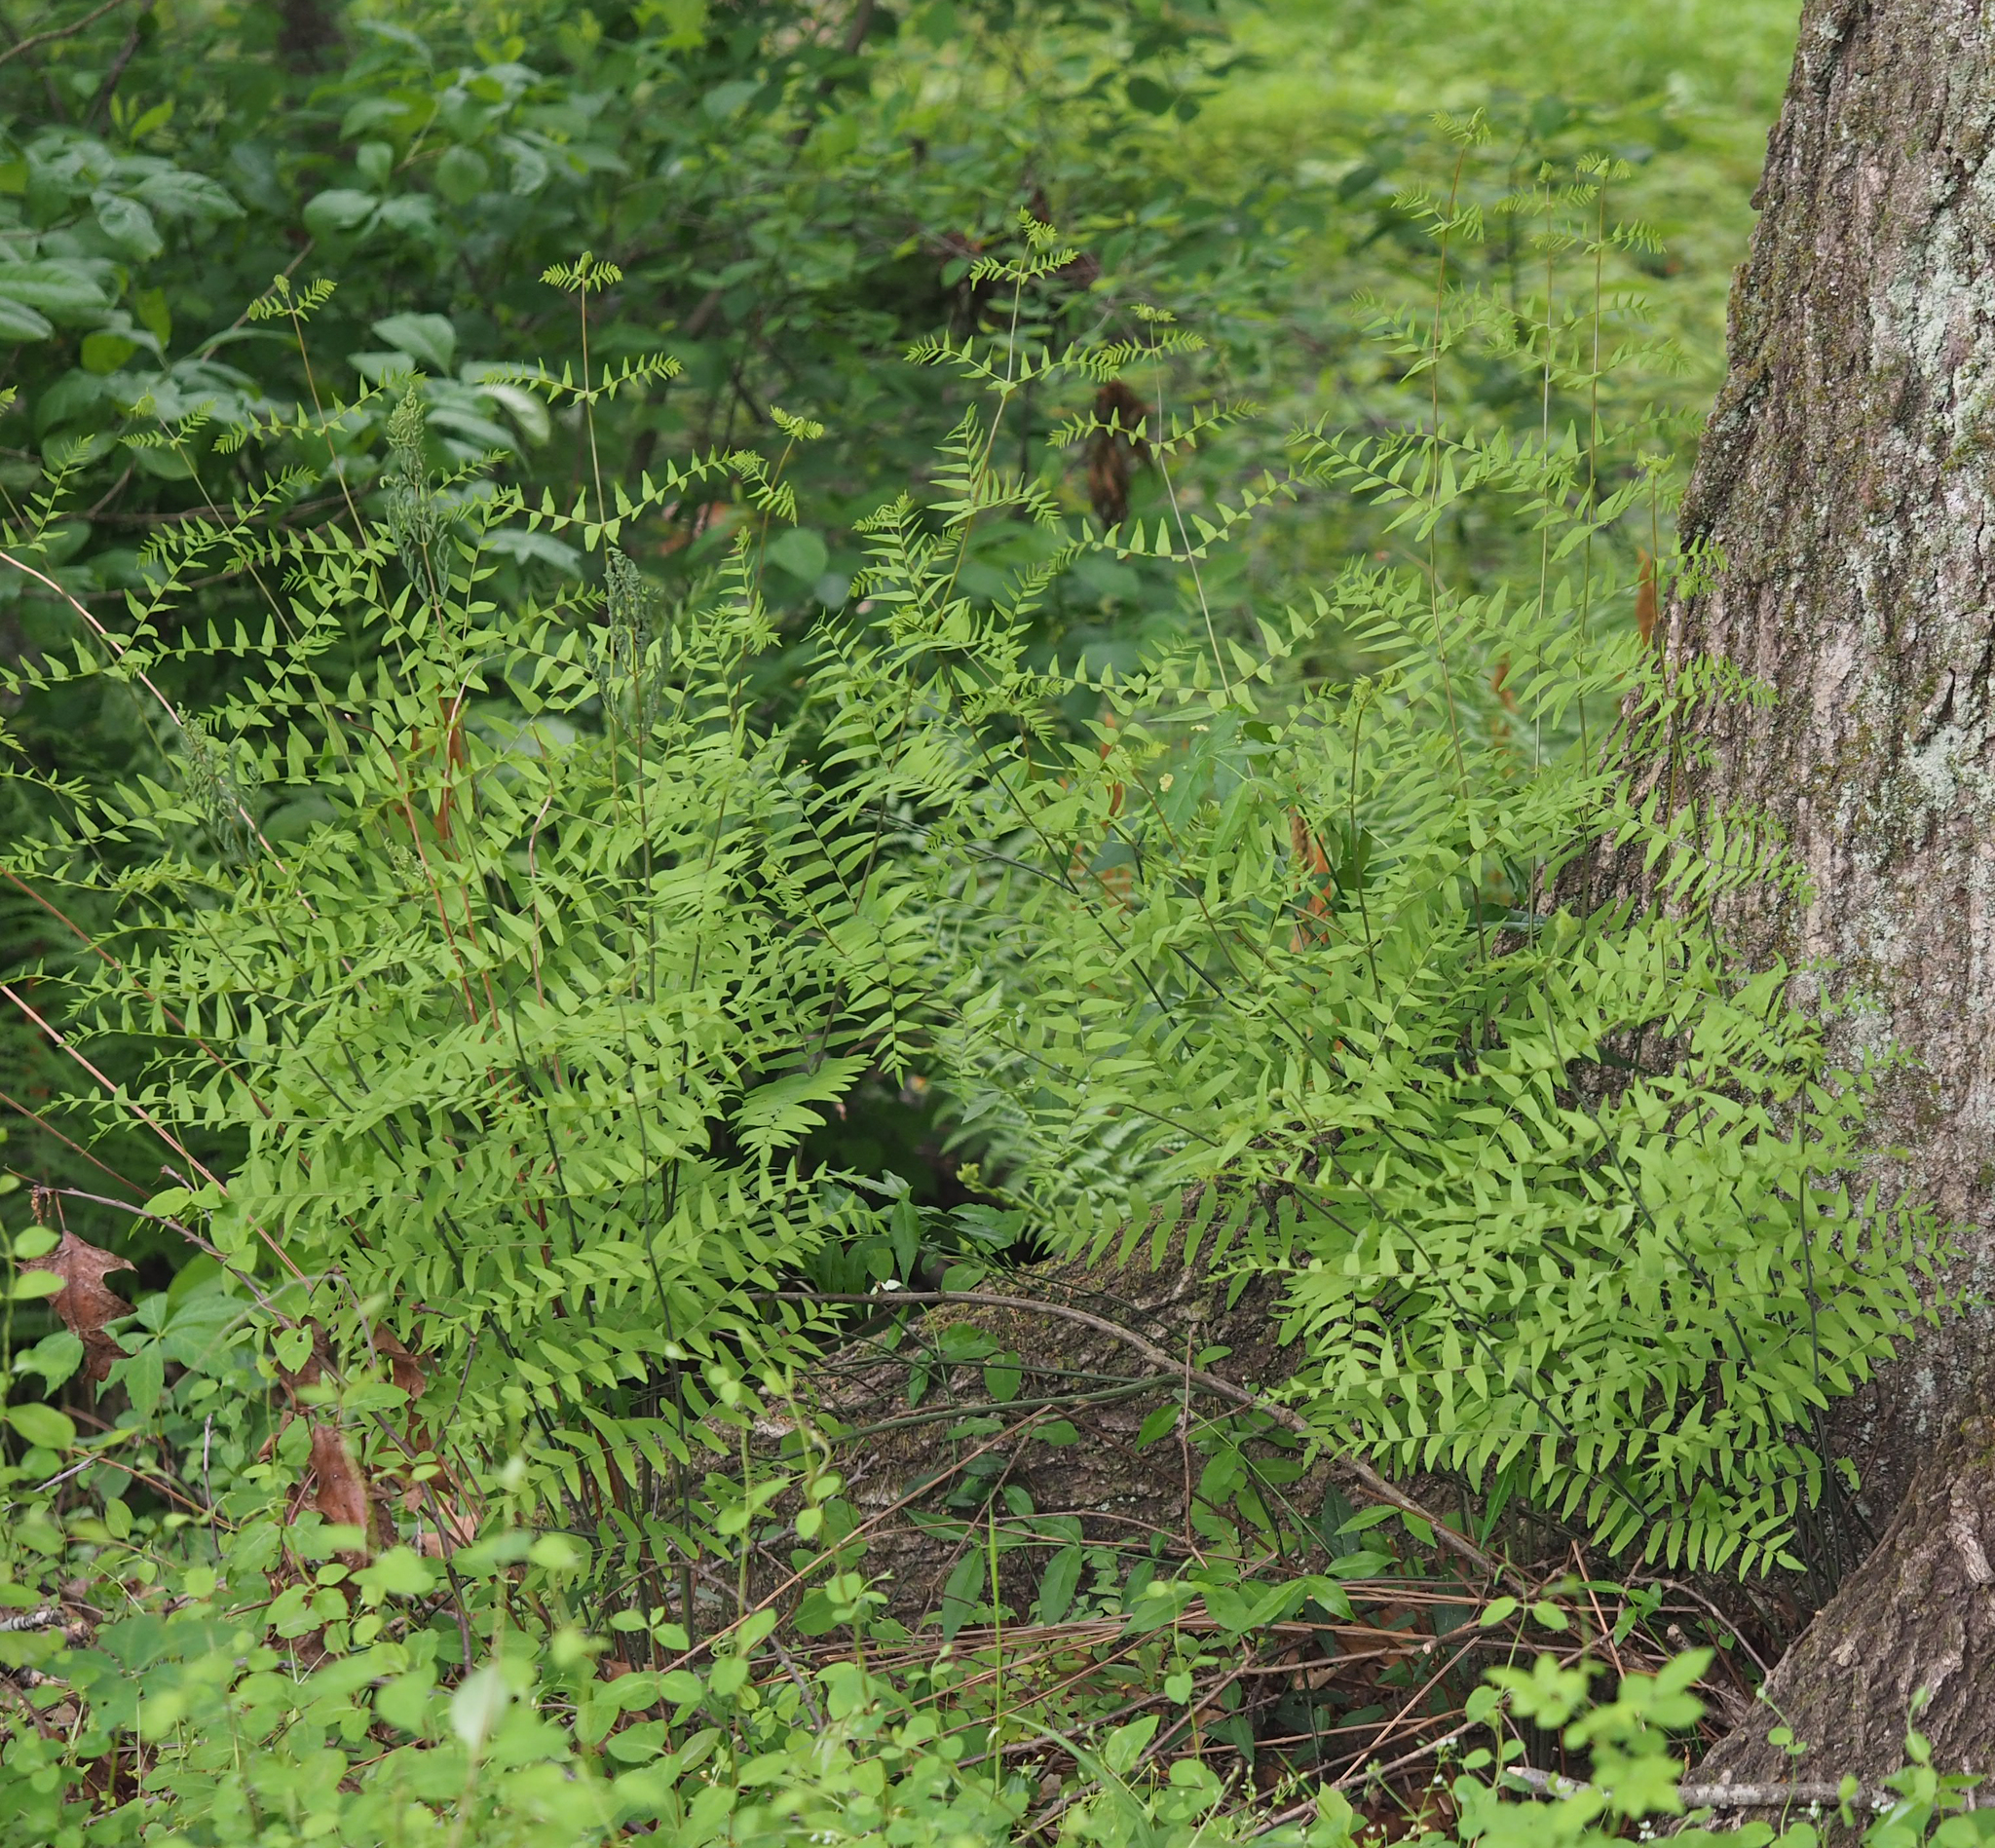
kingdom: Plantae
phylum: Tracheophyta
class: Polypodiopsida
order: Osmundales
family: Osmundaceae
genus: Osmunda
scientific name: Osmunda spectabilis
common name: American royal fern
